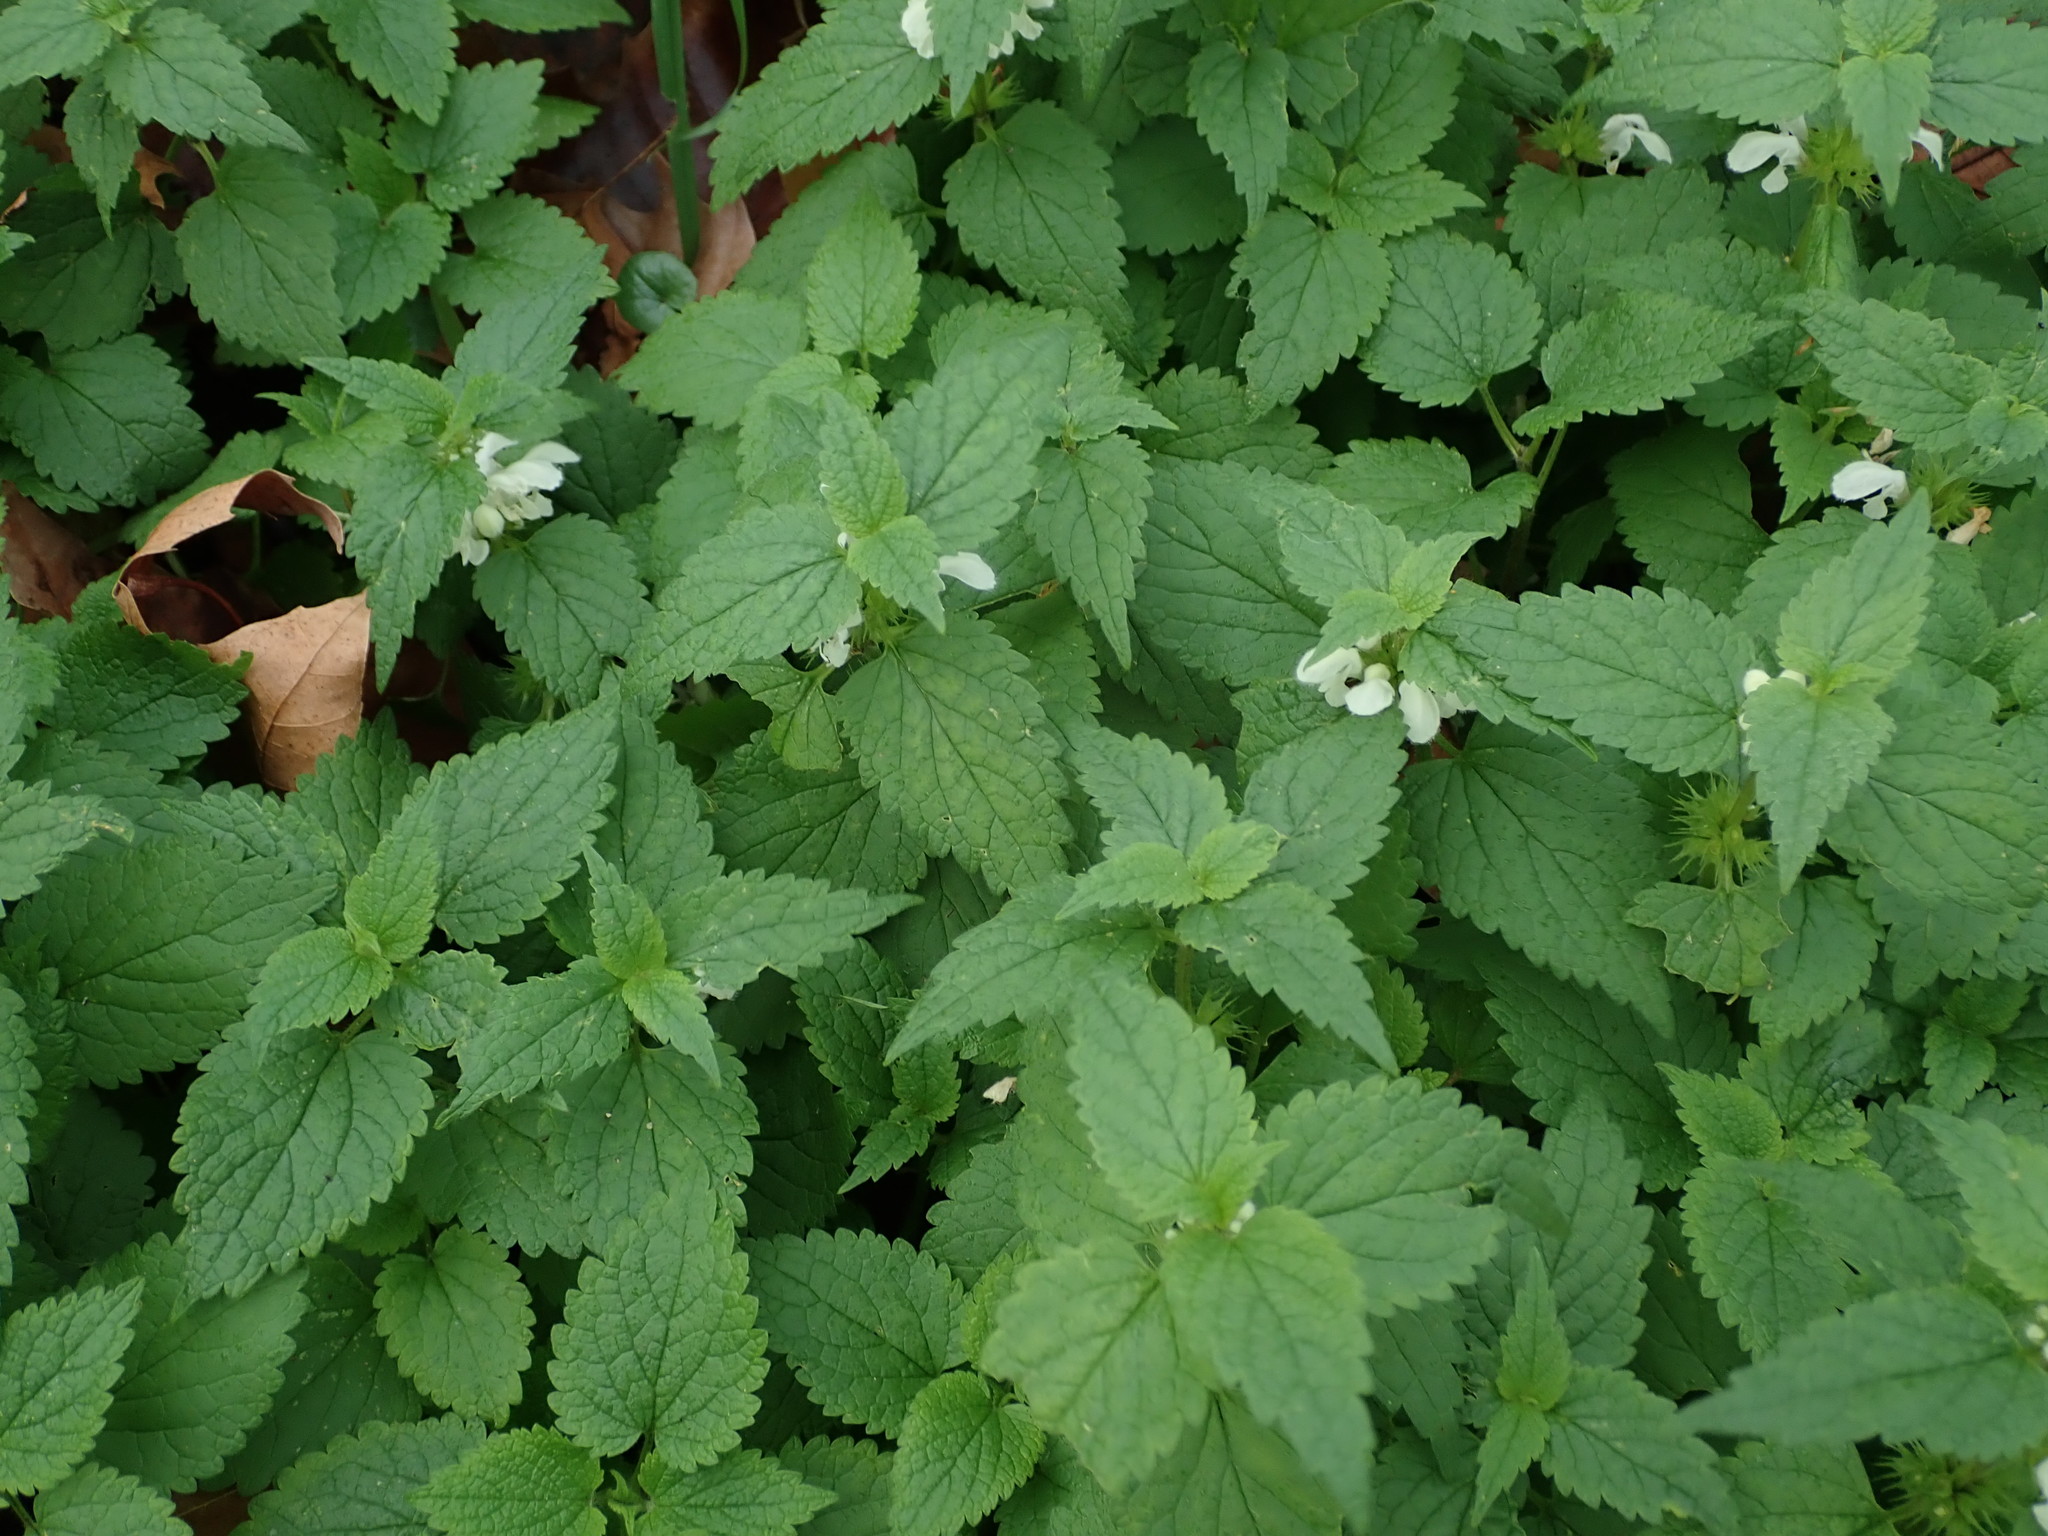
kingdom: Plantae
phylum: Tracheophyta
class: Magnoliopsida
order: Lamiales
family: Lamiaceae
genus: Lamium
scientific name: Lamium album
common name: White dead-nettle
